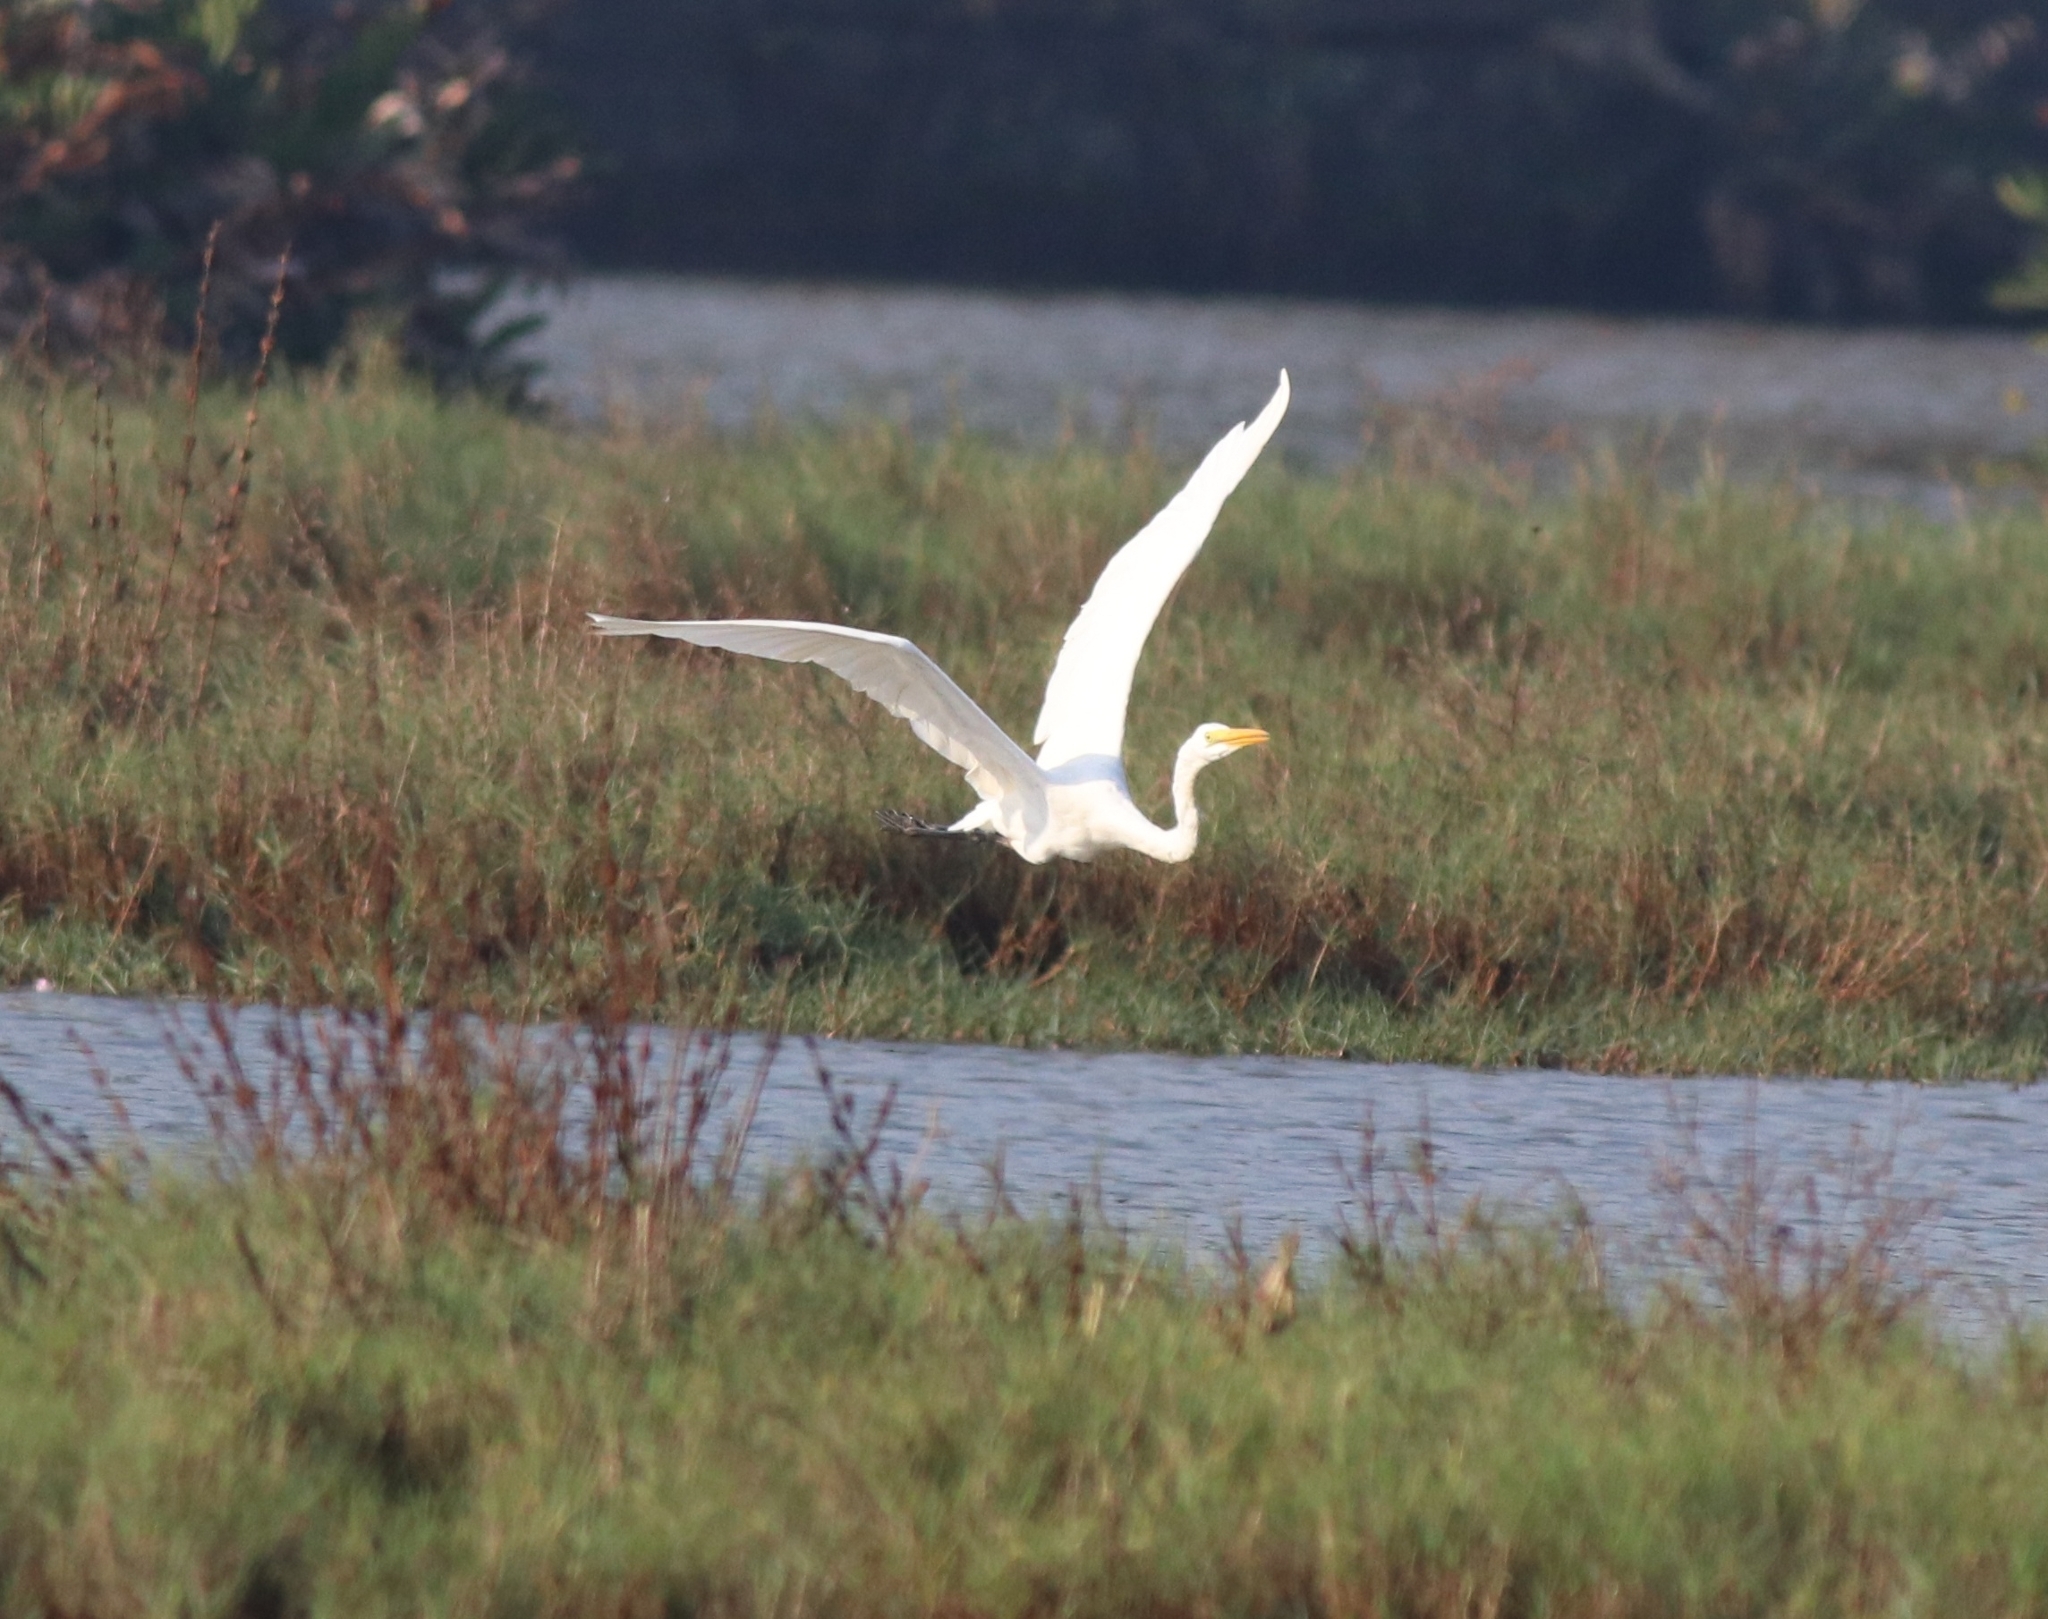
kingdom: Animalia
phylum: Chordata
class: Aves
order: Pelecaniformes
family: Ardeidae
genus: Ardea
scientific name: Ardea alba
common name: Great egret
